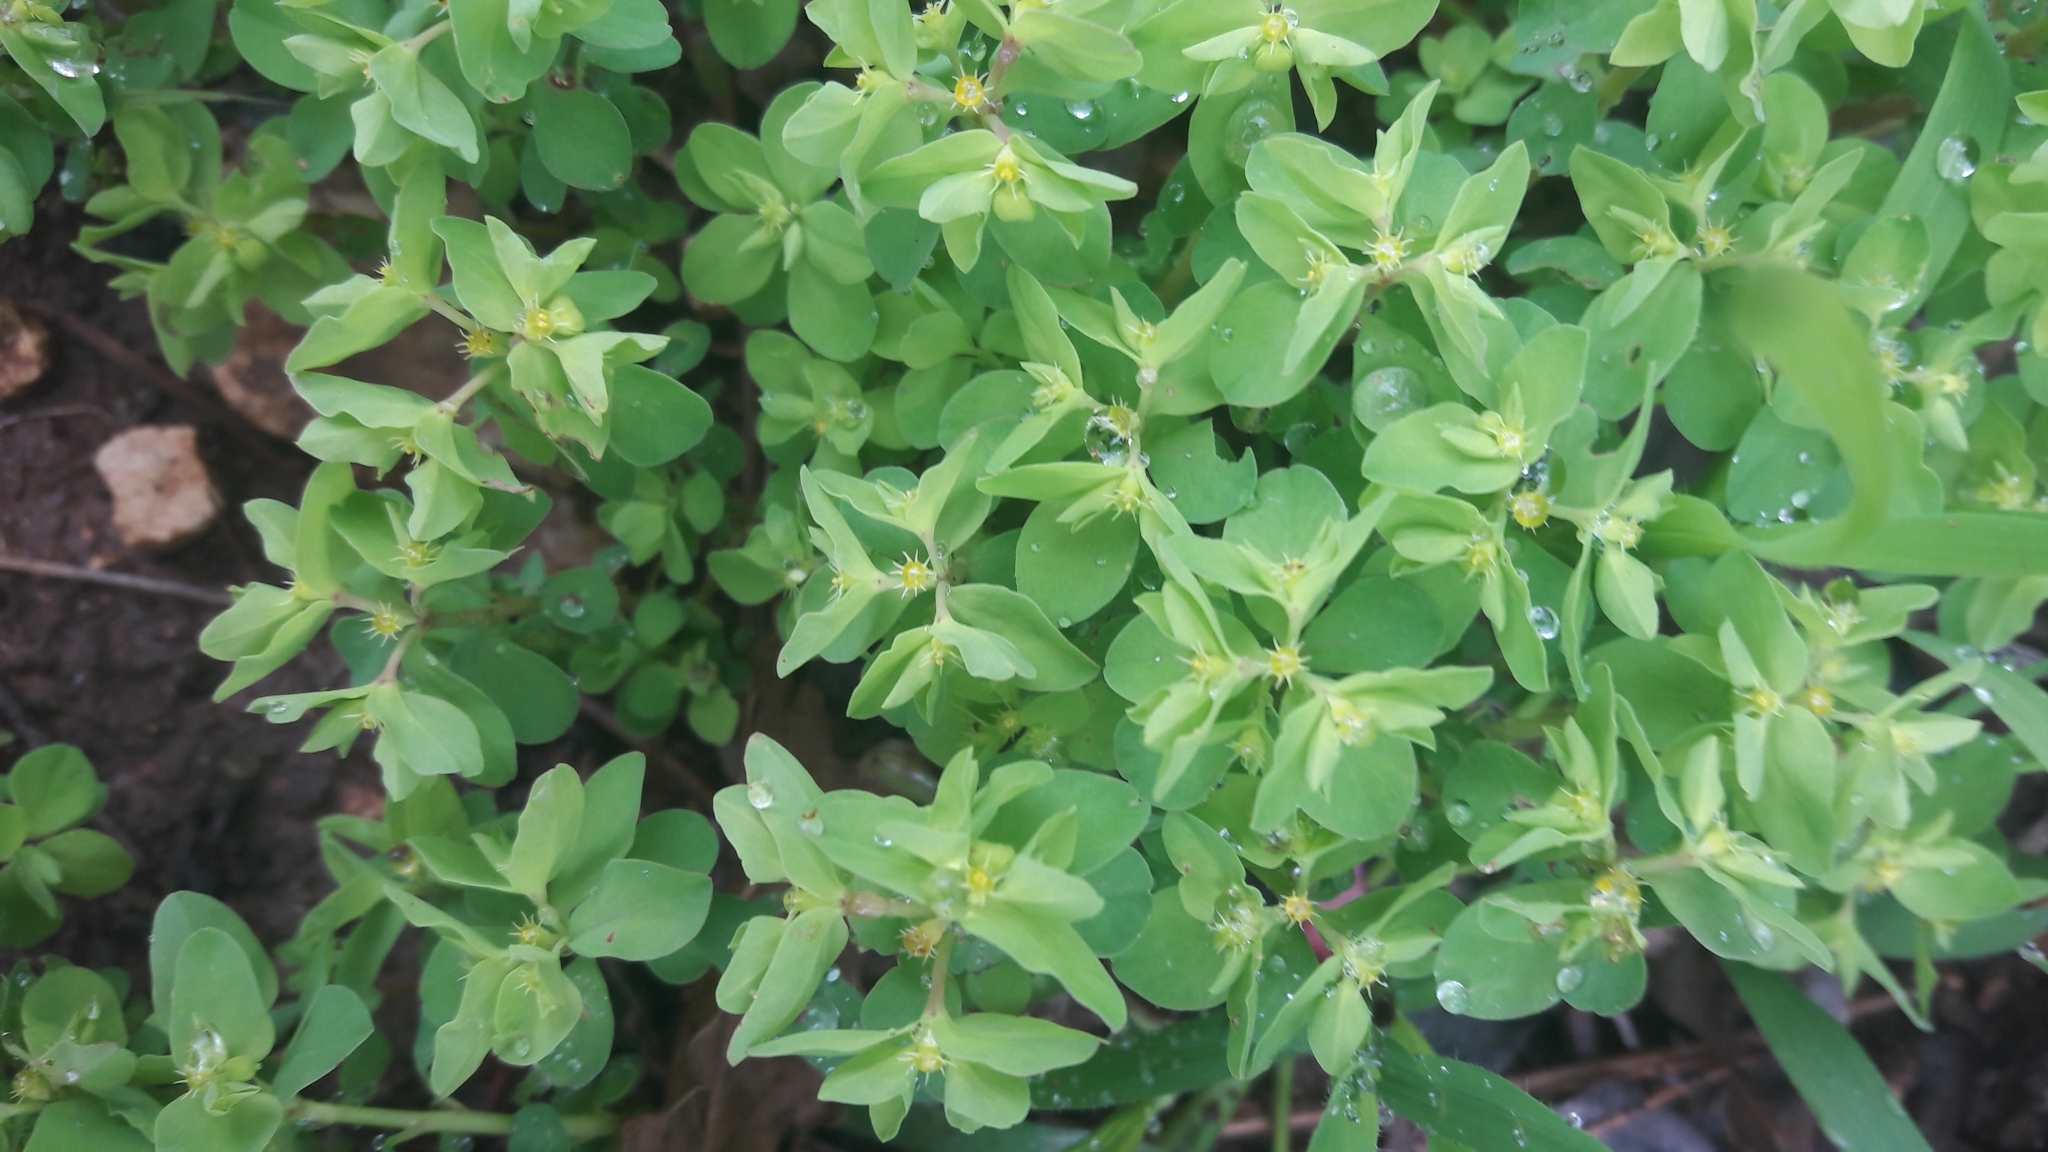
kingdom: Plantae
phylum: Tracheophyta
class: Magnoliopsida
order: Malpighiales
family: Euphorbiaceae
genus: Euphorbia
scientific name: Euphorbia peplus
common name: Petty spurge
